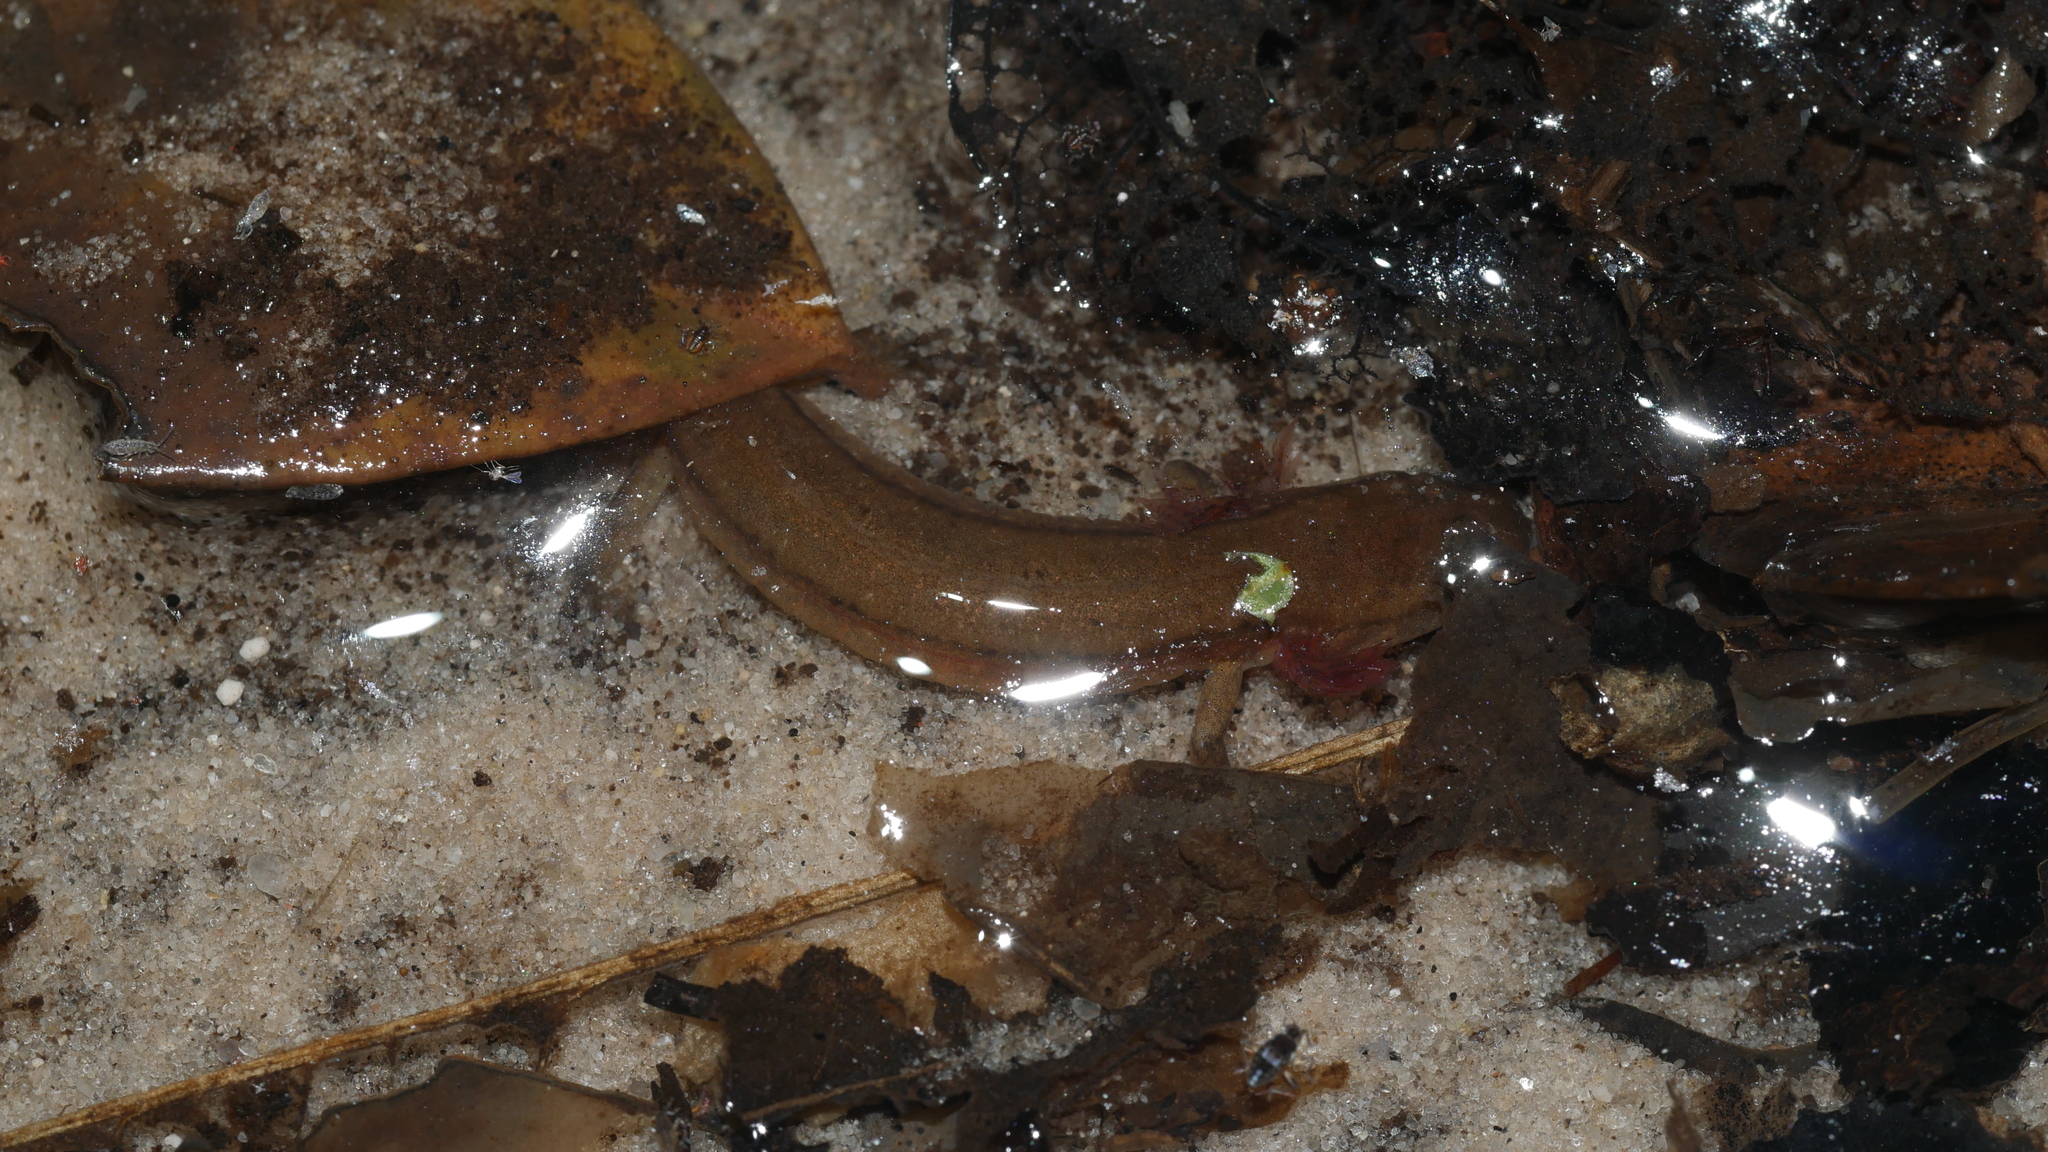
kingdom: Animalia
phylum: Chordata
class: Amphibia
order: Caudata
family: Plethodontidae
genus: Eurycea
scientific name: Eurycea cirrigera
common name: Southern two-lined salamander
